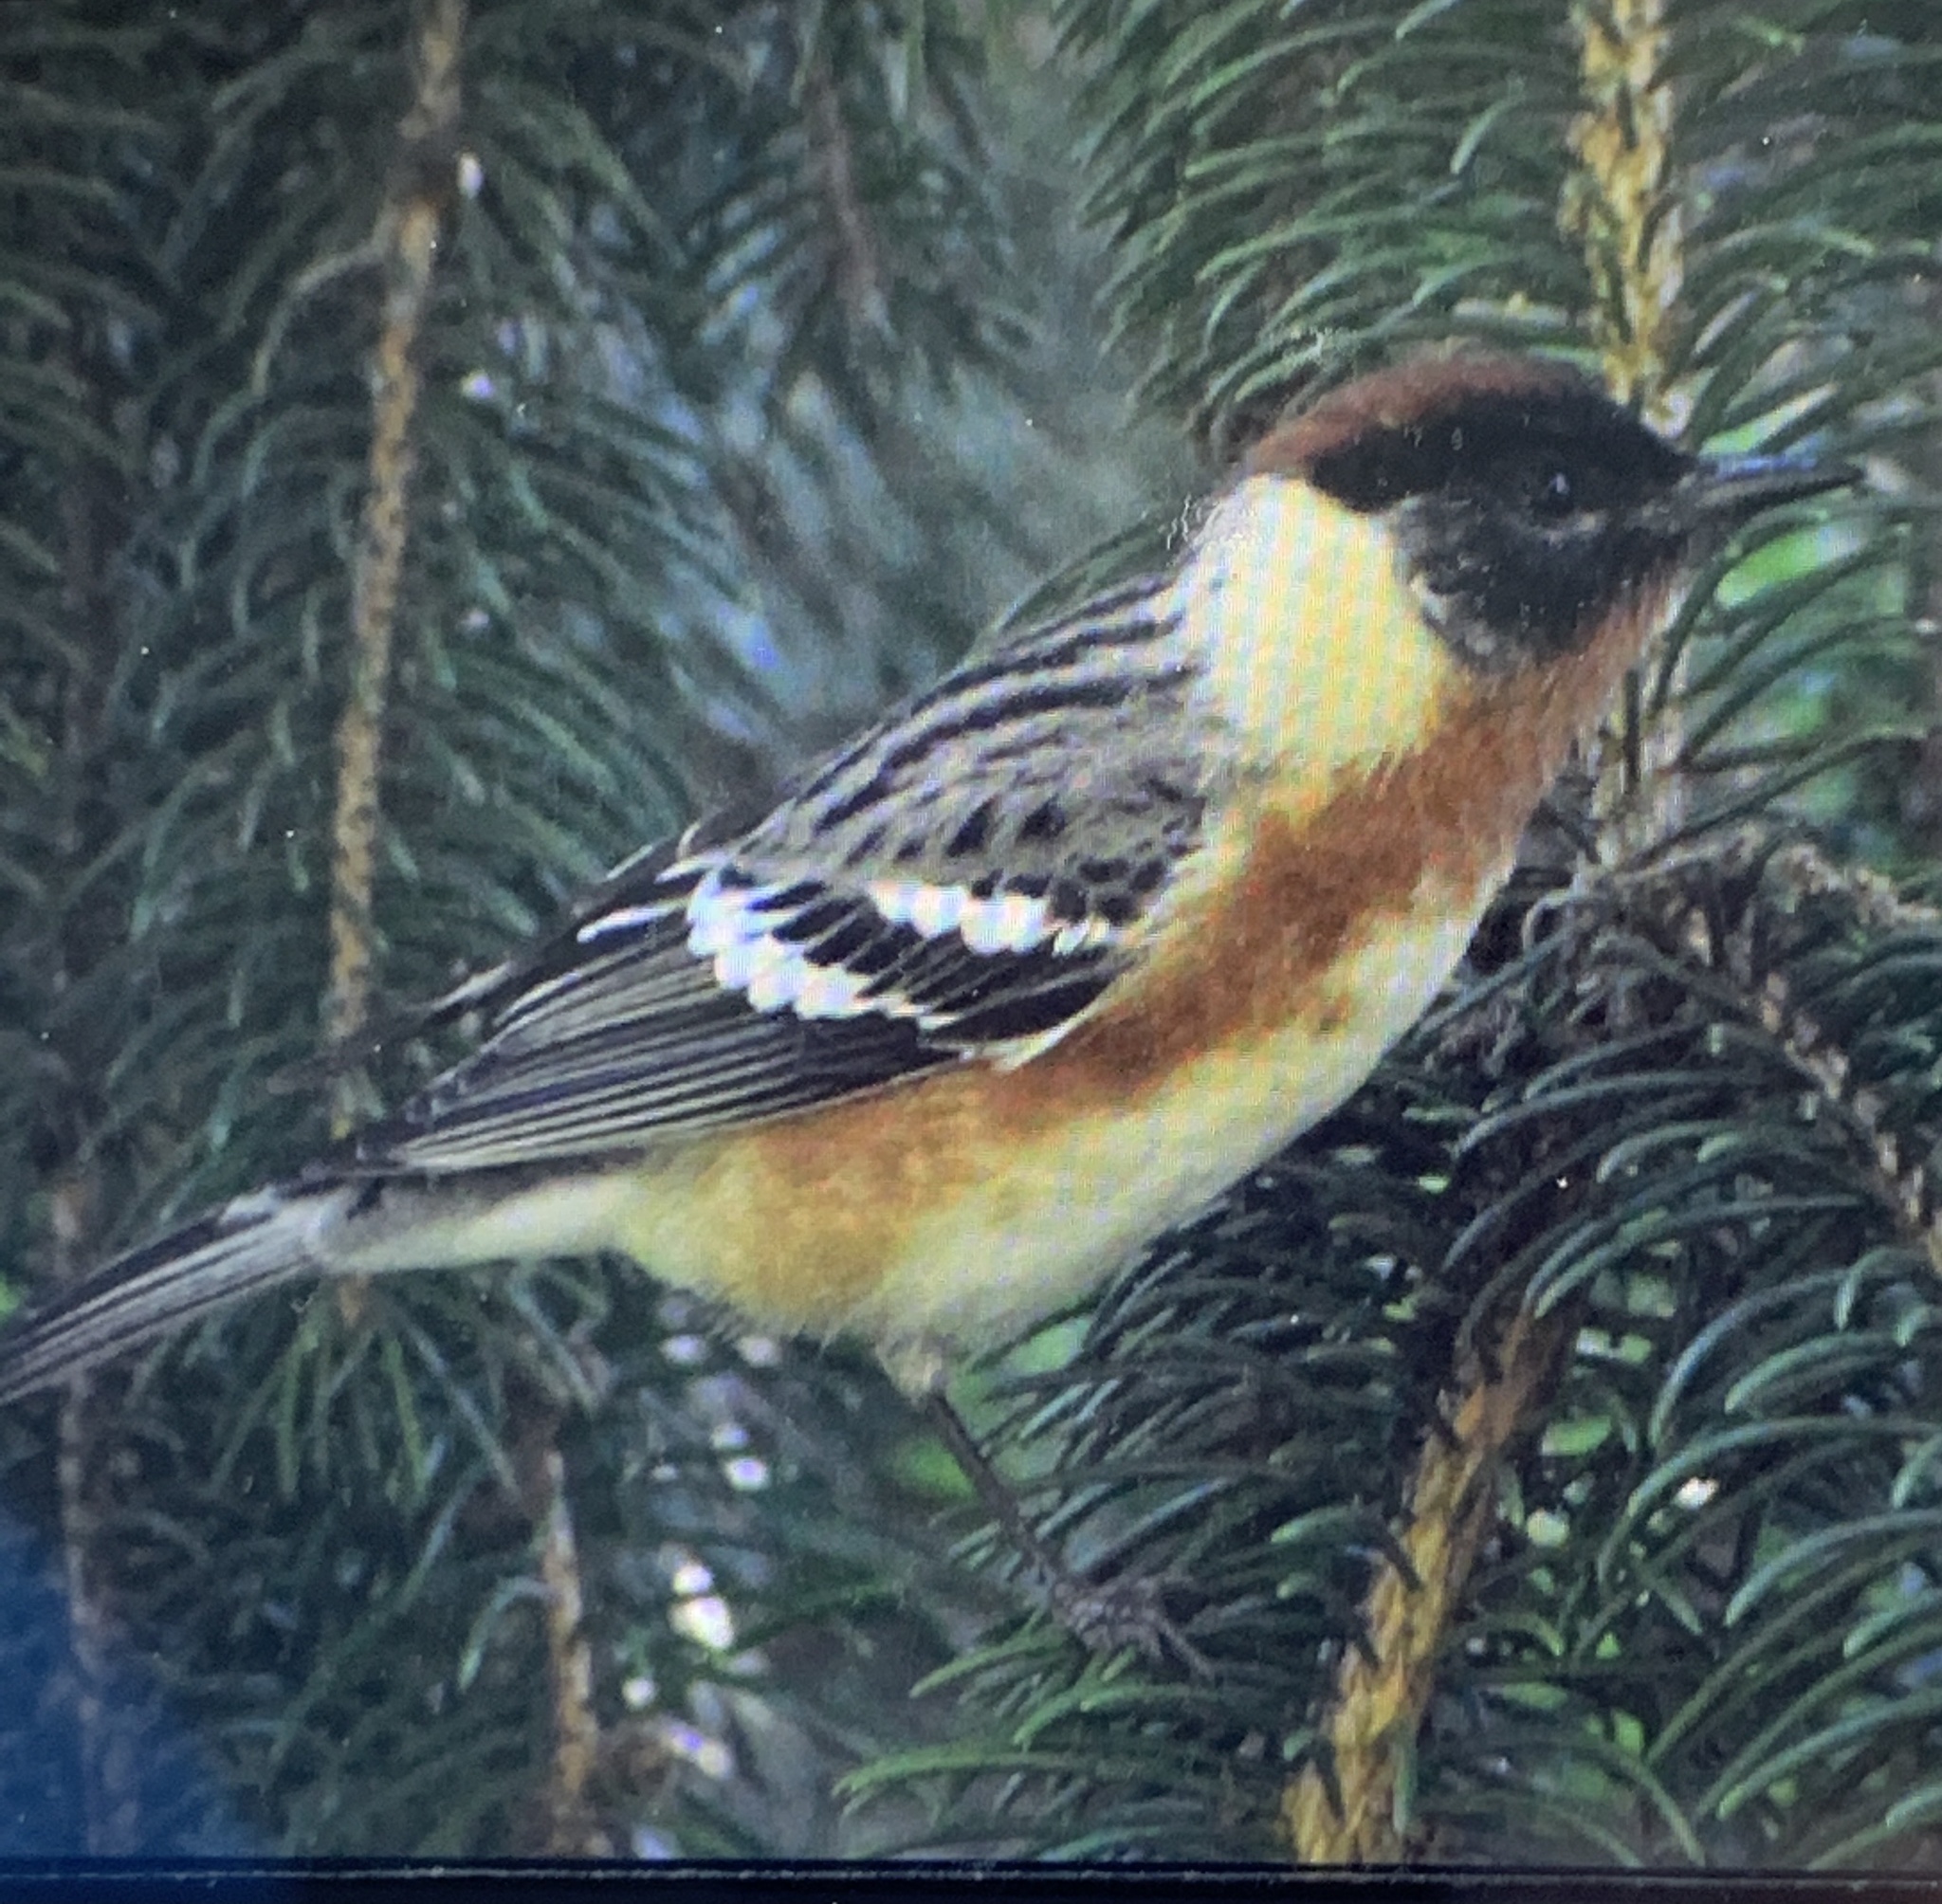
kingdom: Animalia
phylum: Chordata
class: Aves
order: Passeriformes
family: Parulidae
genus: Setophaga
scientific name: Setophaga castanea
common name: Bay-breasted warbler
